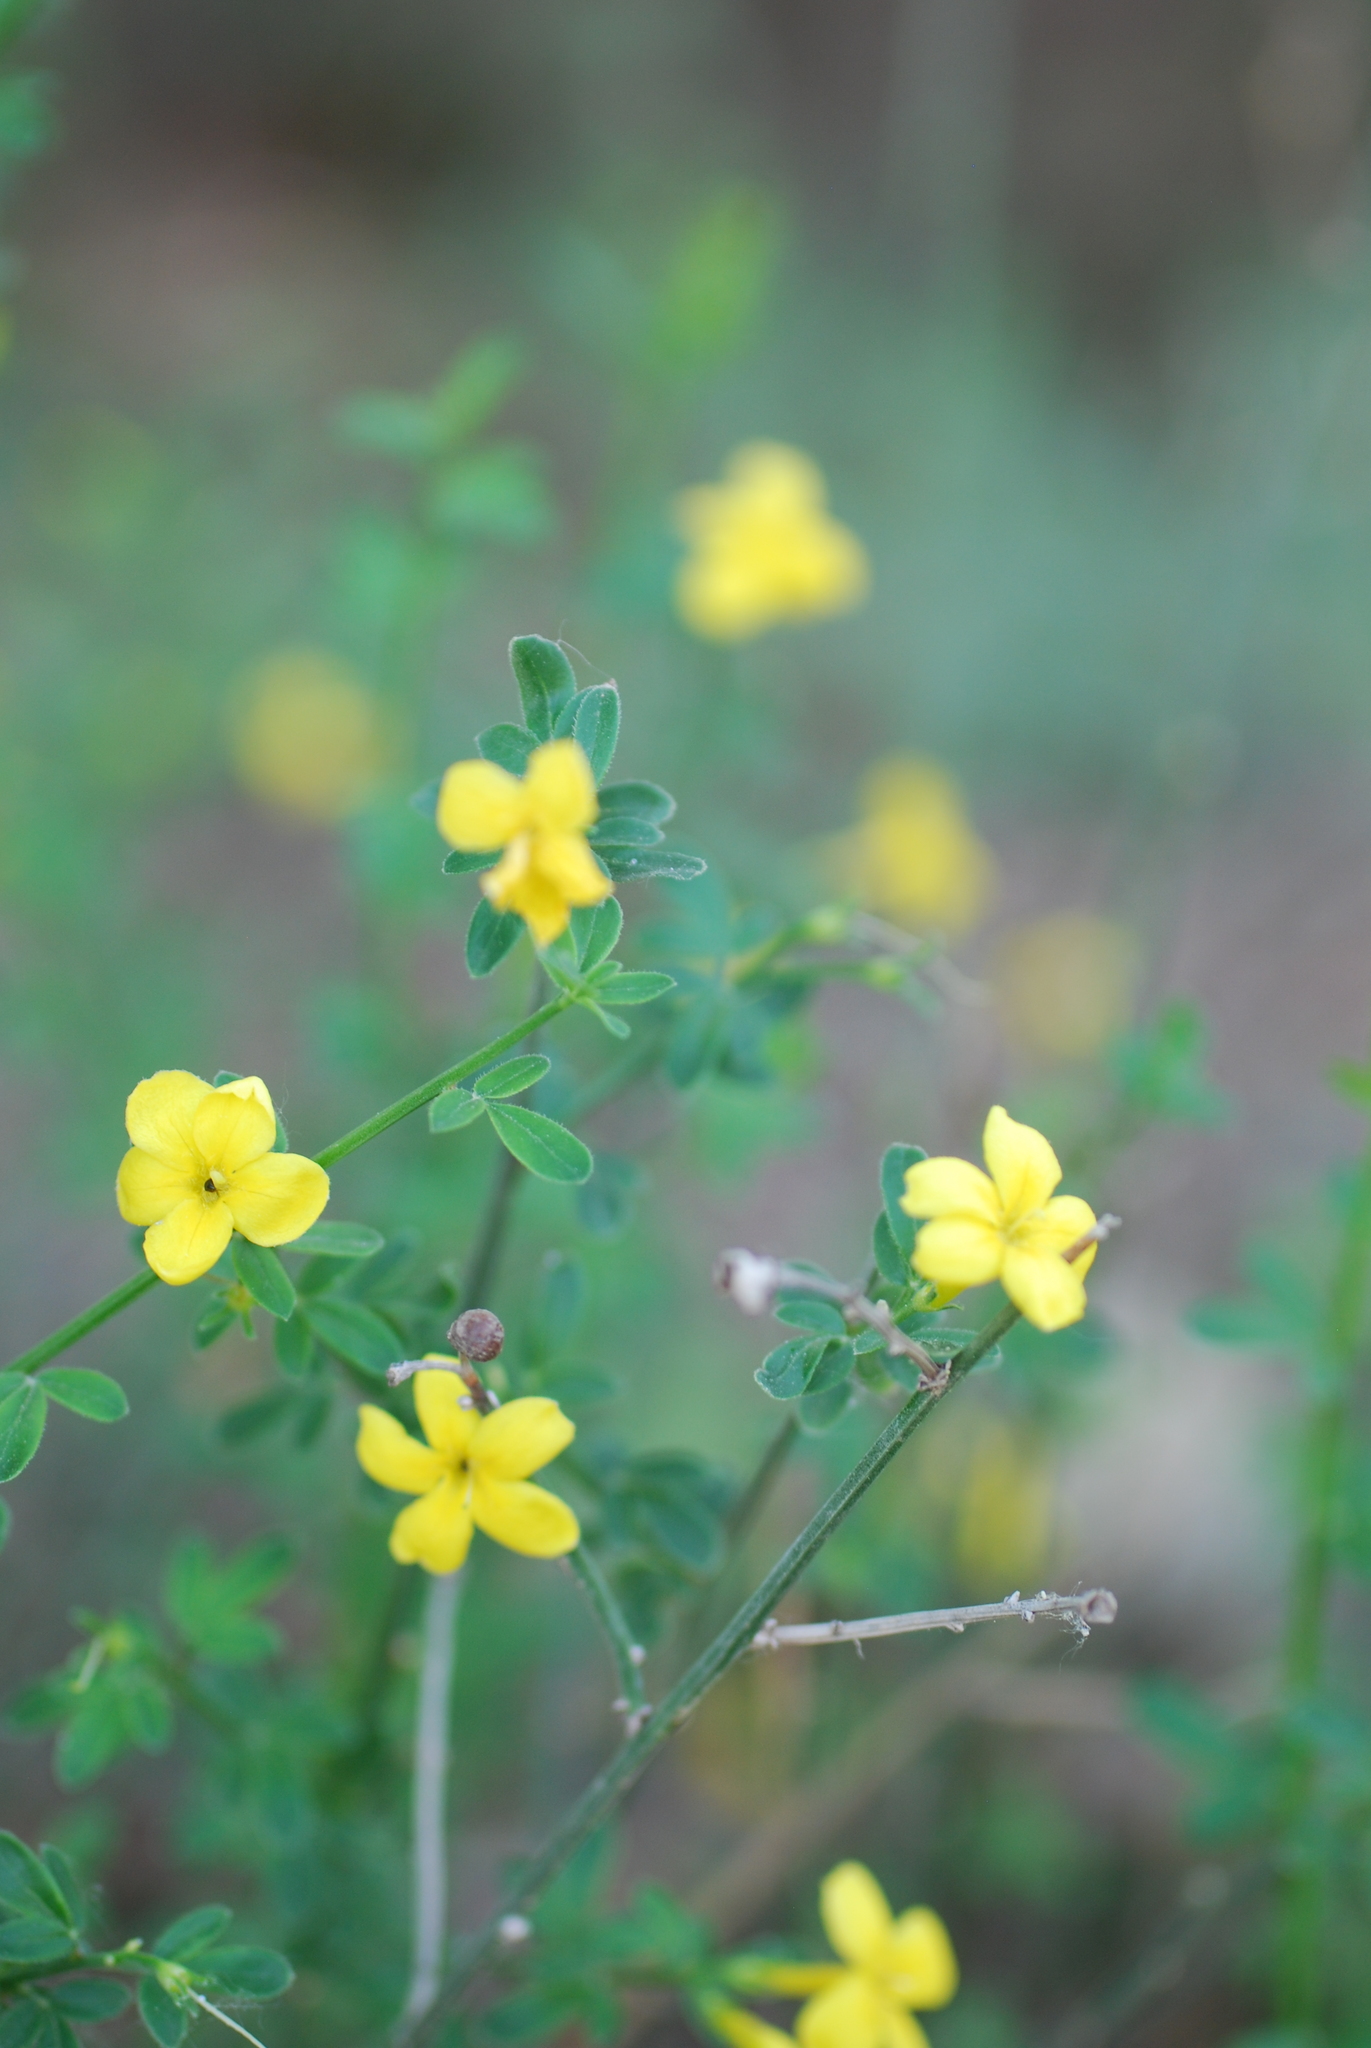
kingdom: Plantae
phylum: Tracheophyta
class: Magnoliopsida
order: Lamiales
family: Oleaceae
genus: Chrysojasminum
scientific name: Chrysojasminum fruticans
